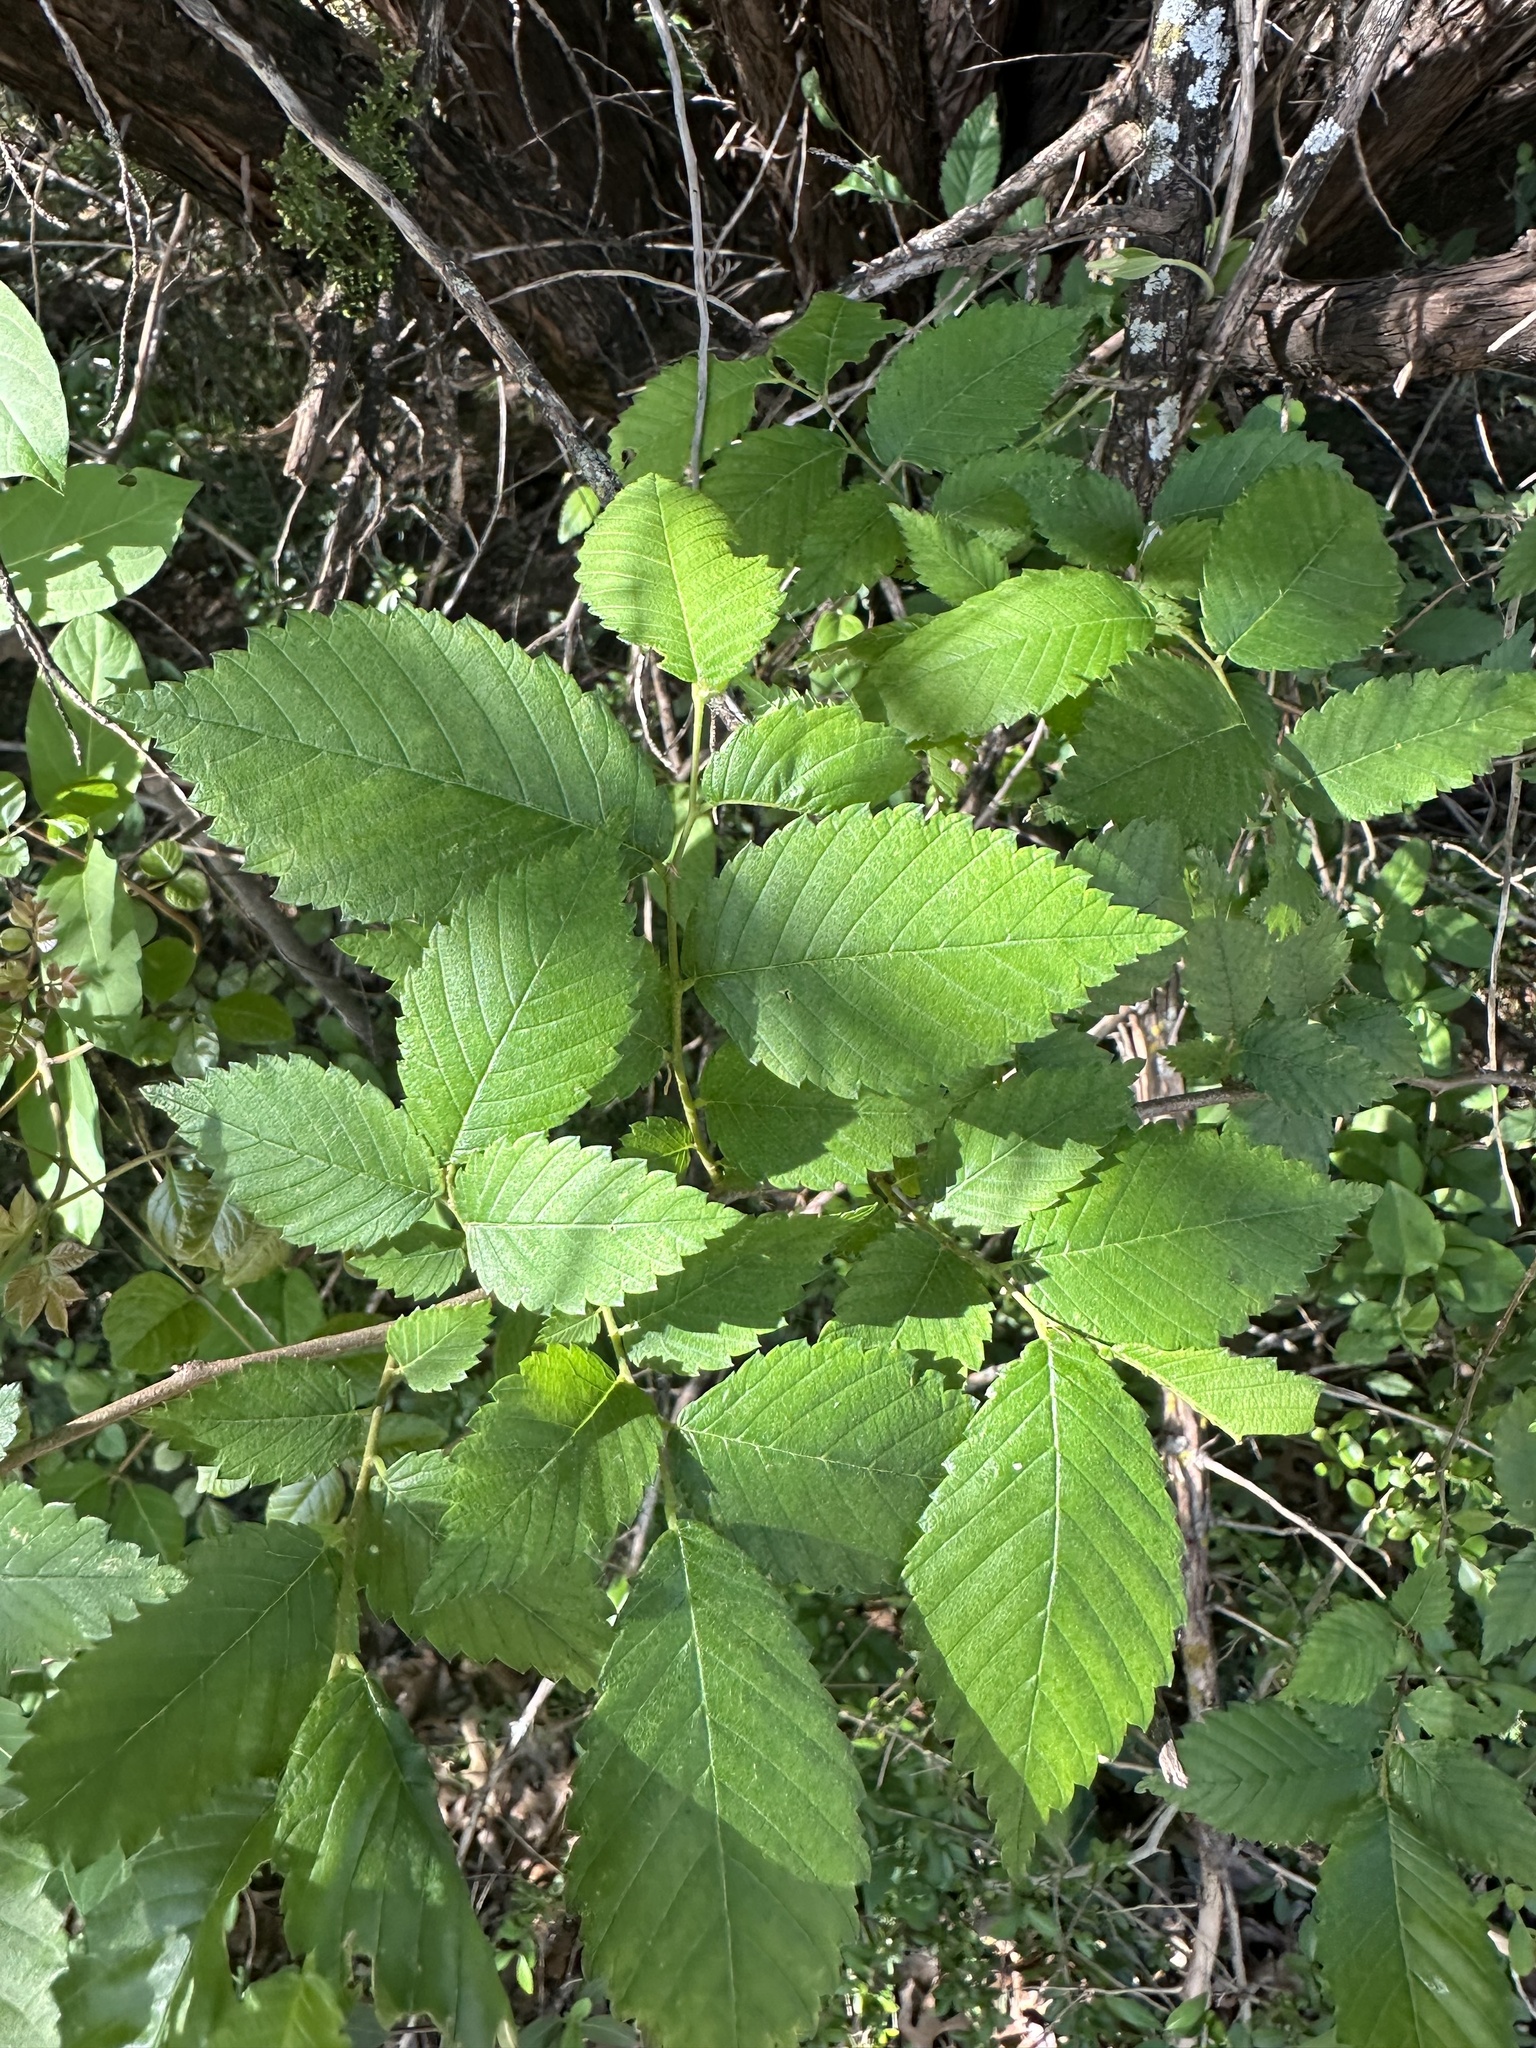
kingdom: Plantae
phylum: Tracheophyta
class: Magnoliopsida
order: Rosales
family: Ulmaceae
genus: Ulmus
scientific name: Ulmus americana
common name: American elm
